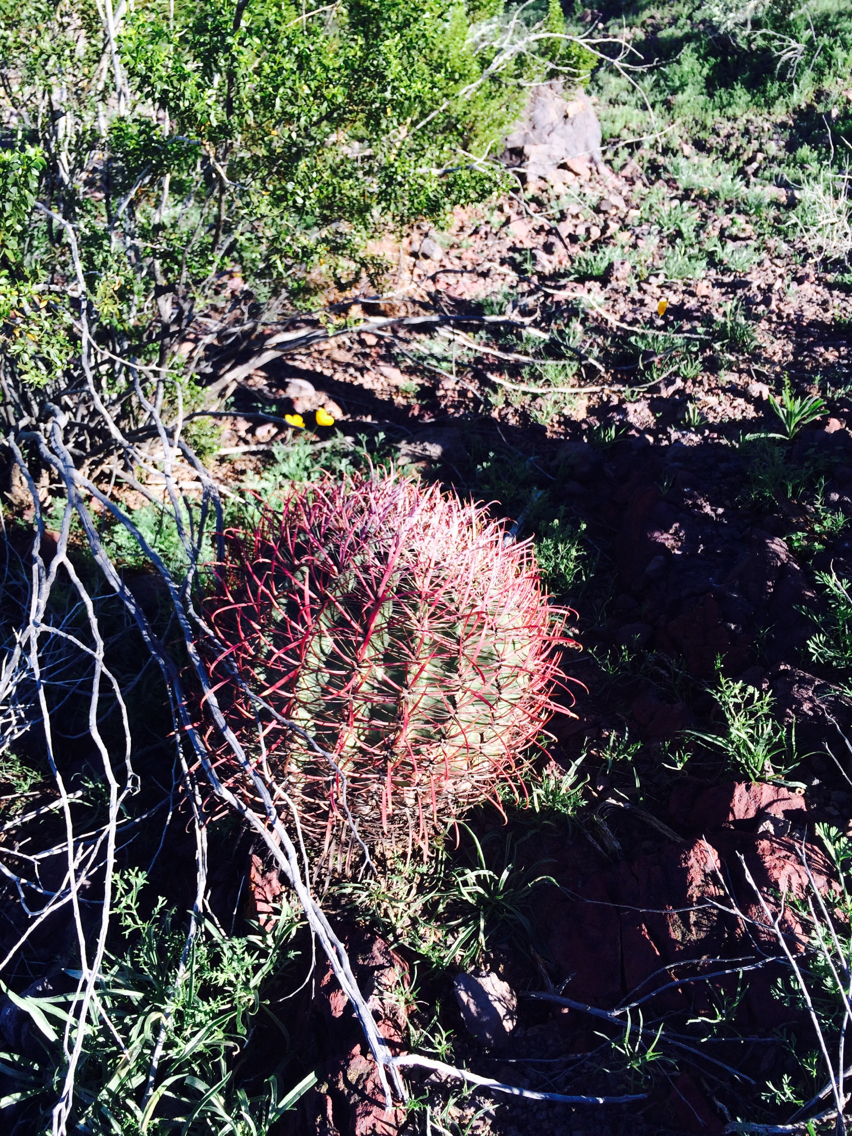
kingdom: Plantae
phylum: Tracheophyta
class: Magnoliopsida
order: Caryophyllales
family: Cactaceae
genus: Ferocactus
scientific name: Ferocactus cylindraceus
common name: California barrel cactus
